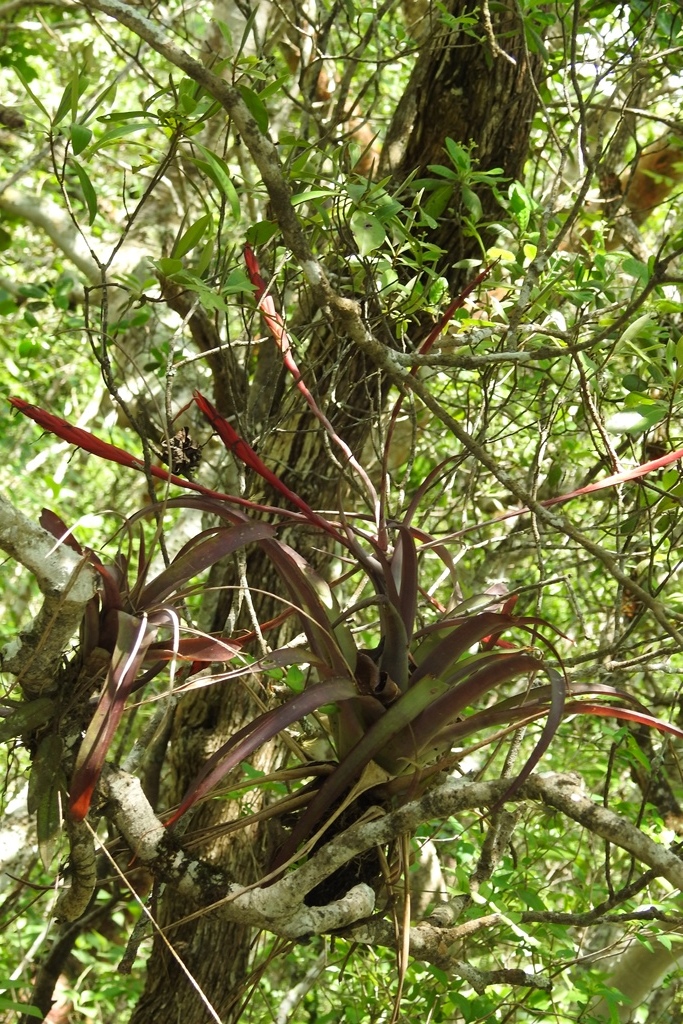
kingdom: Plantae
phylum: Tracheophyta
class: Liliopsida
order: Poales
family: Bromeliaceae
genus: Tillandsia
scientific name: Tillandsia flabellata
